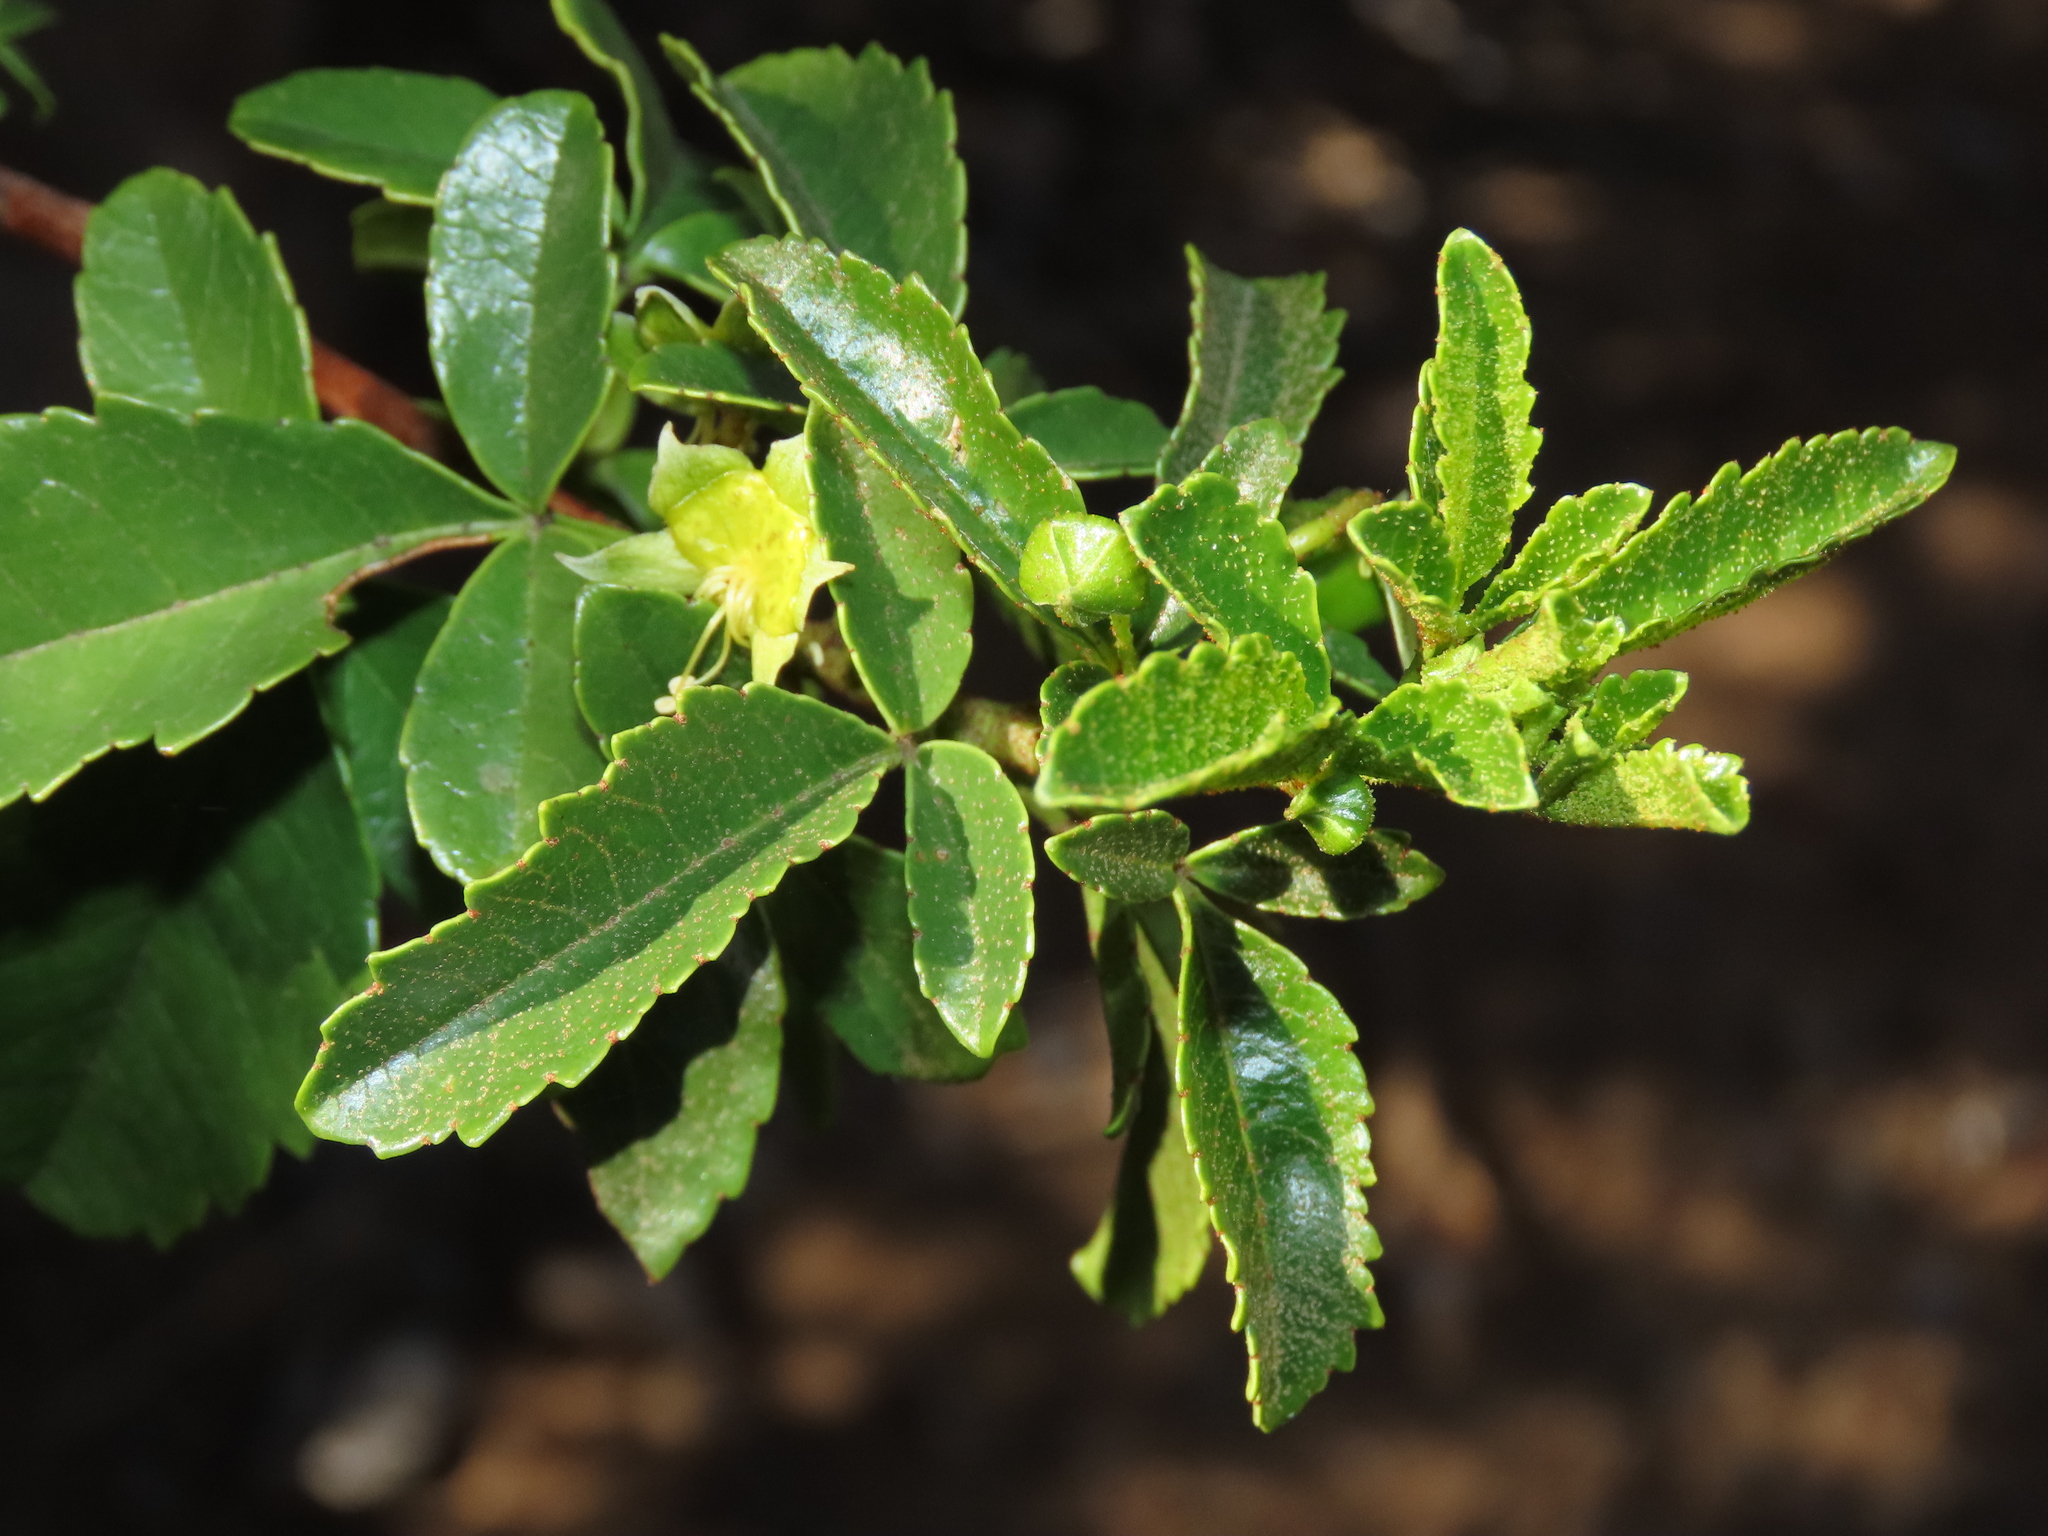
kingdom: Plantae
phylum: Tracheophyta
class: Magnoliopsida
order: Sapindales
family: Sapindaceae
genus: Llagunoa
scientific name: Llagunoa glandulosa
